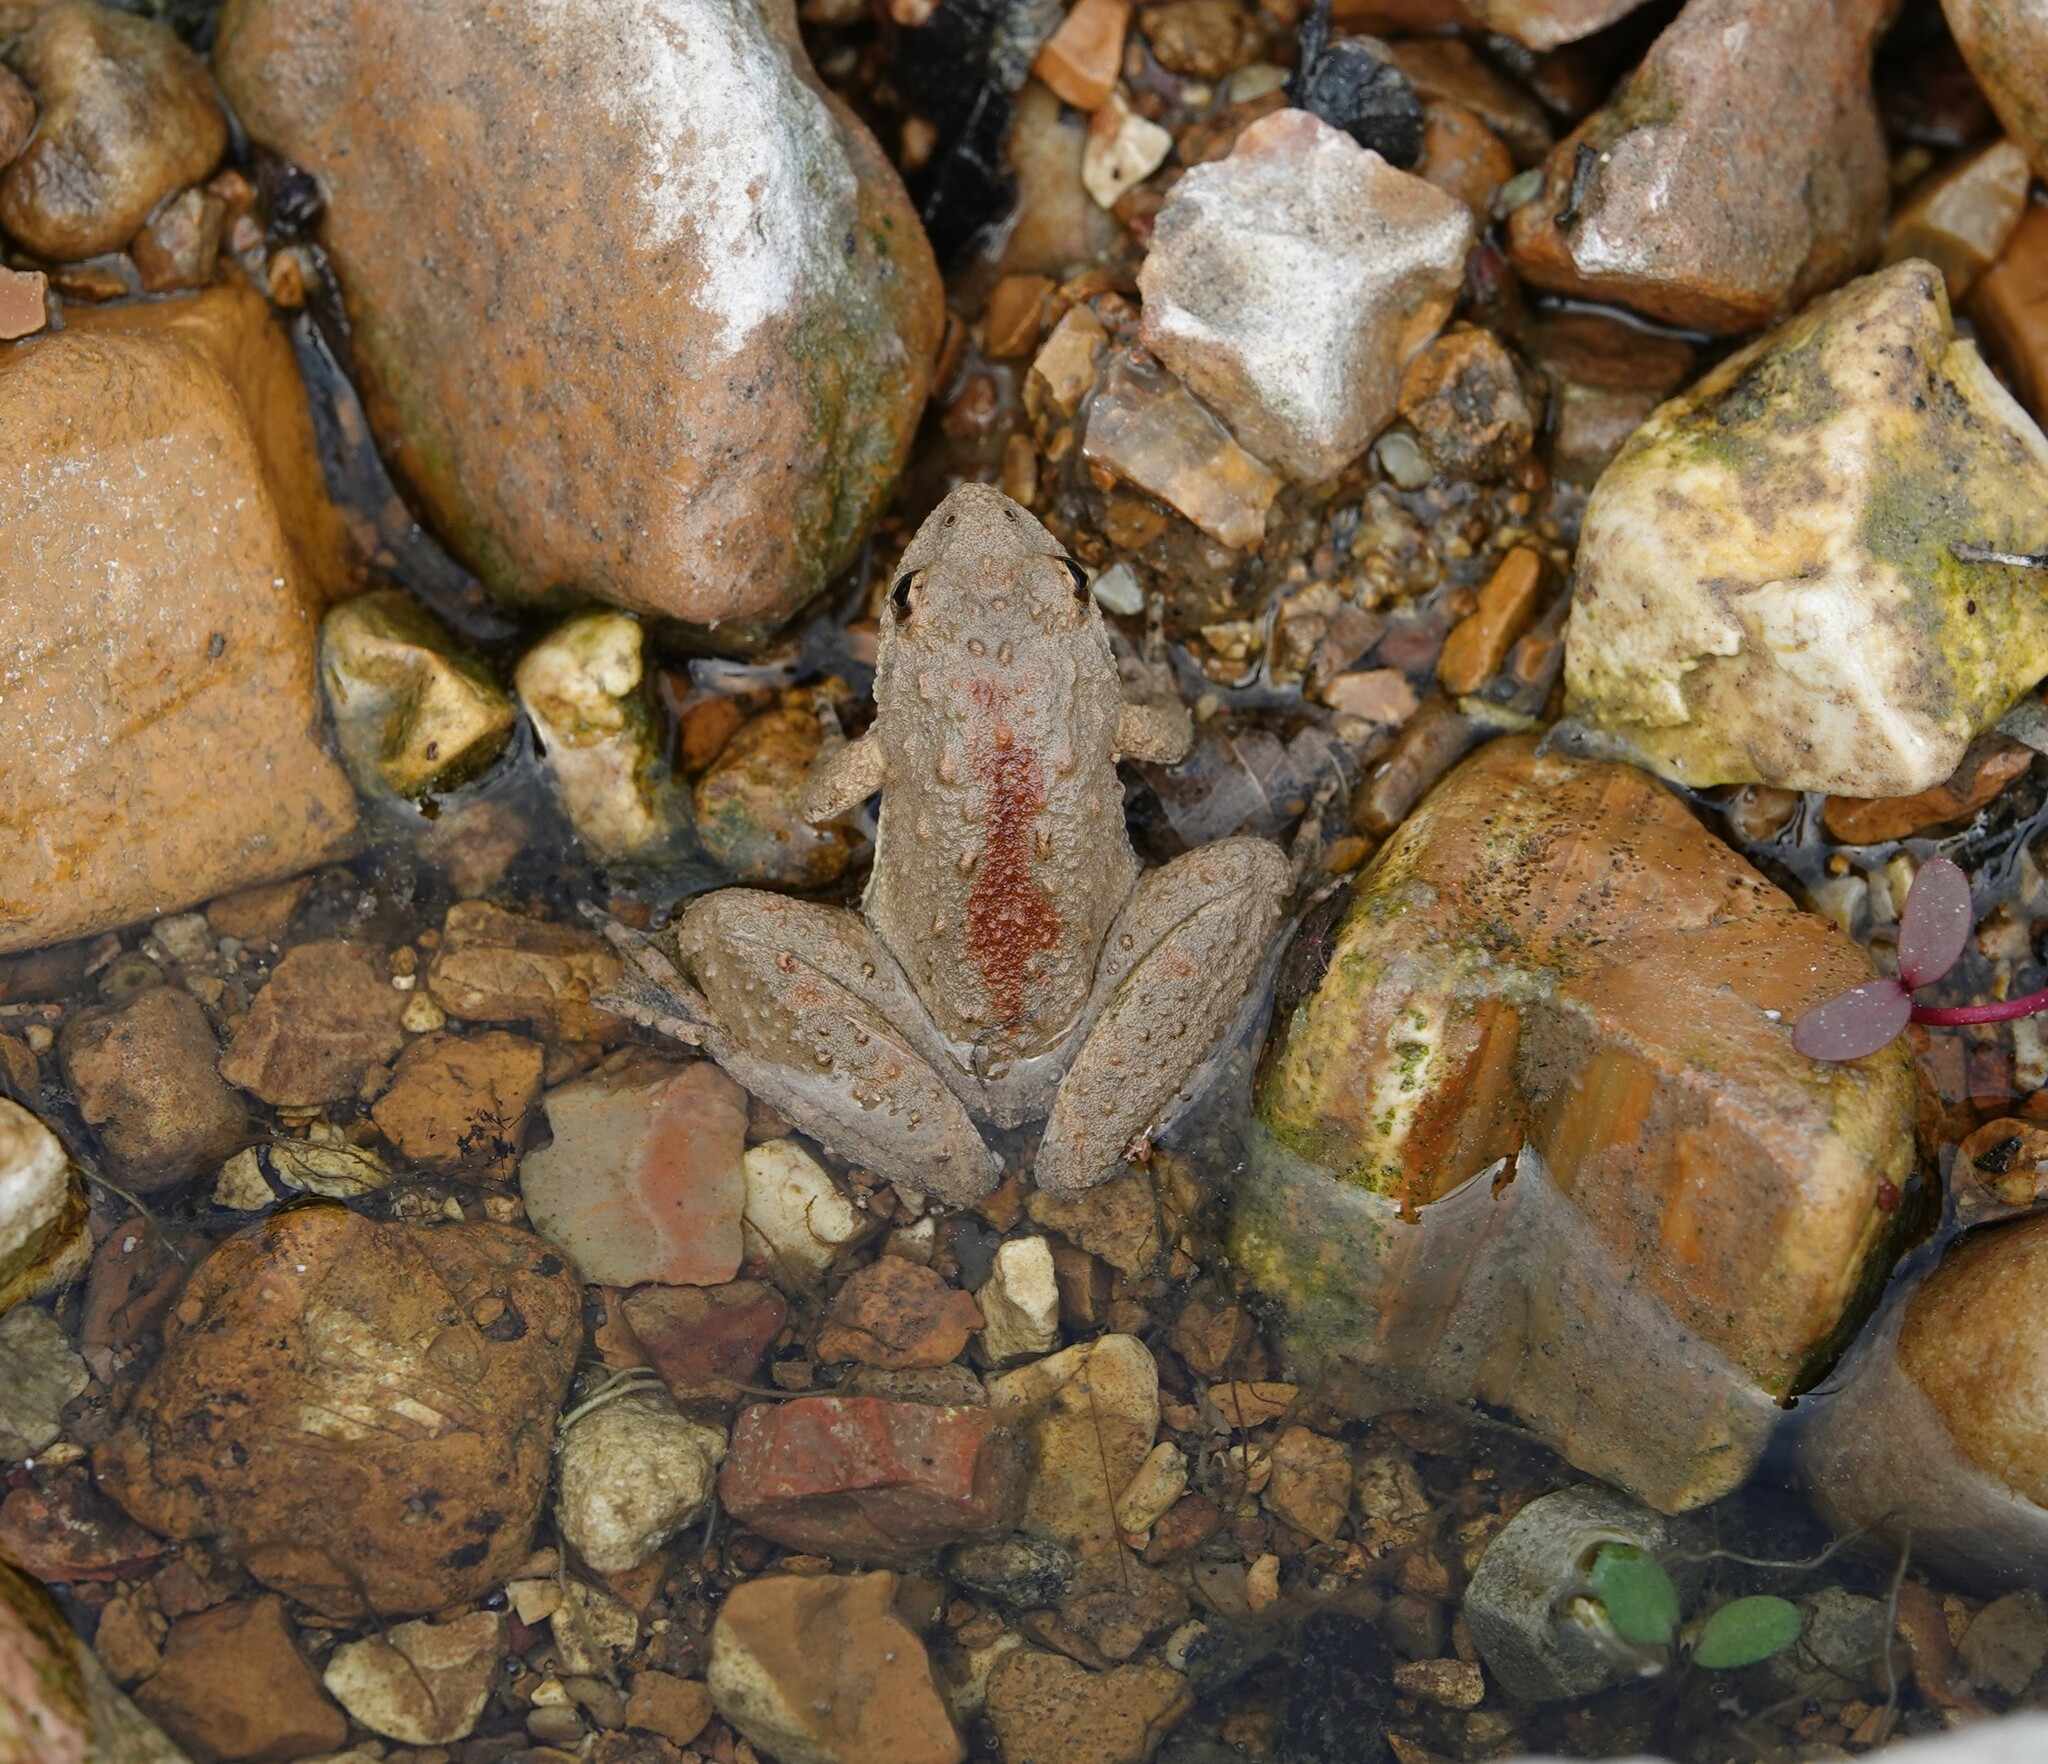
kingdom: Animalia
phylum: Chordata
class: Amphibia
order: Anura
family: Hylidae
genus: Acris
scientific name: Acris blanchardi
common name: Blanchard's cricket frog
